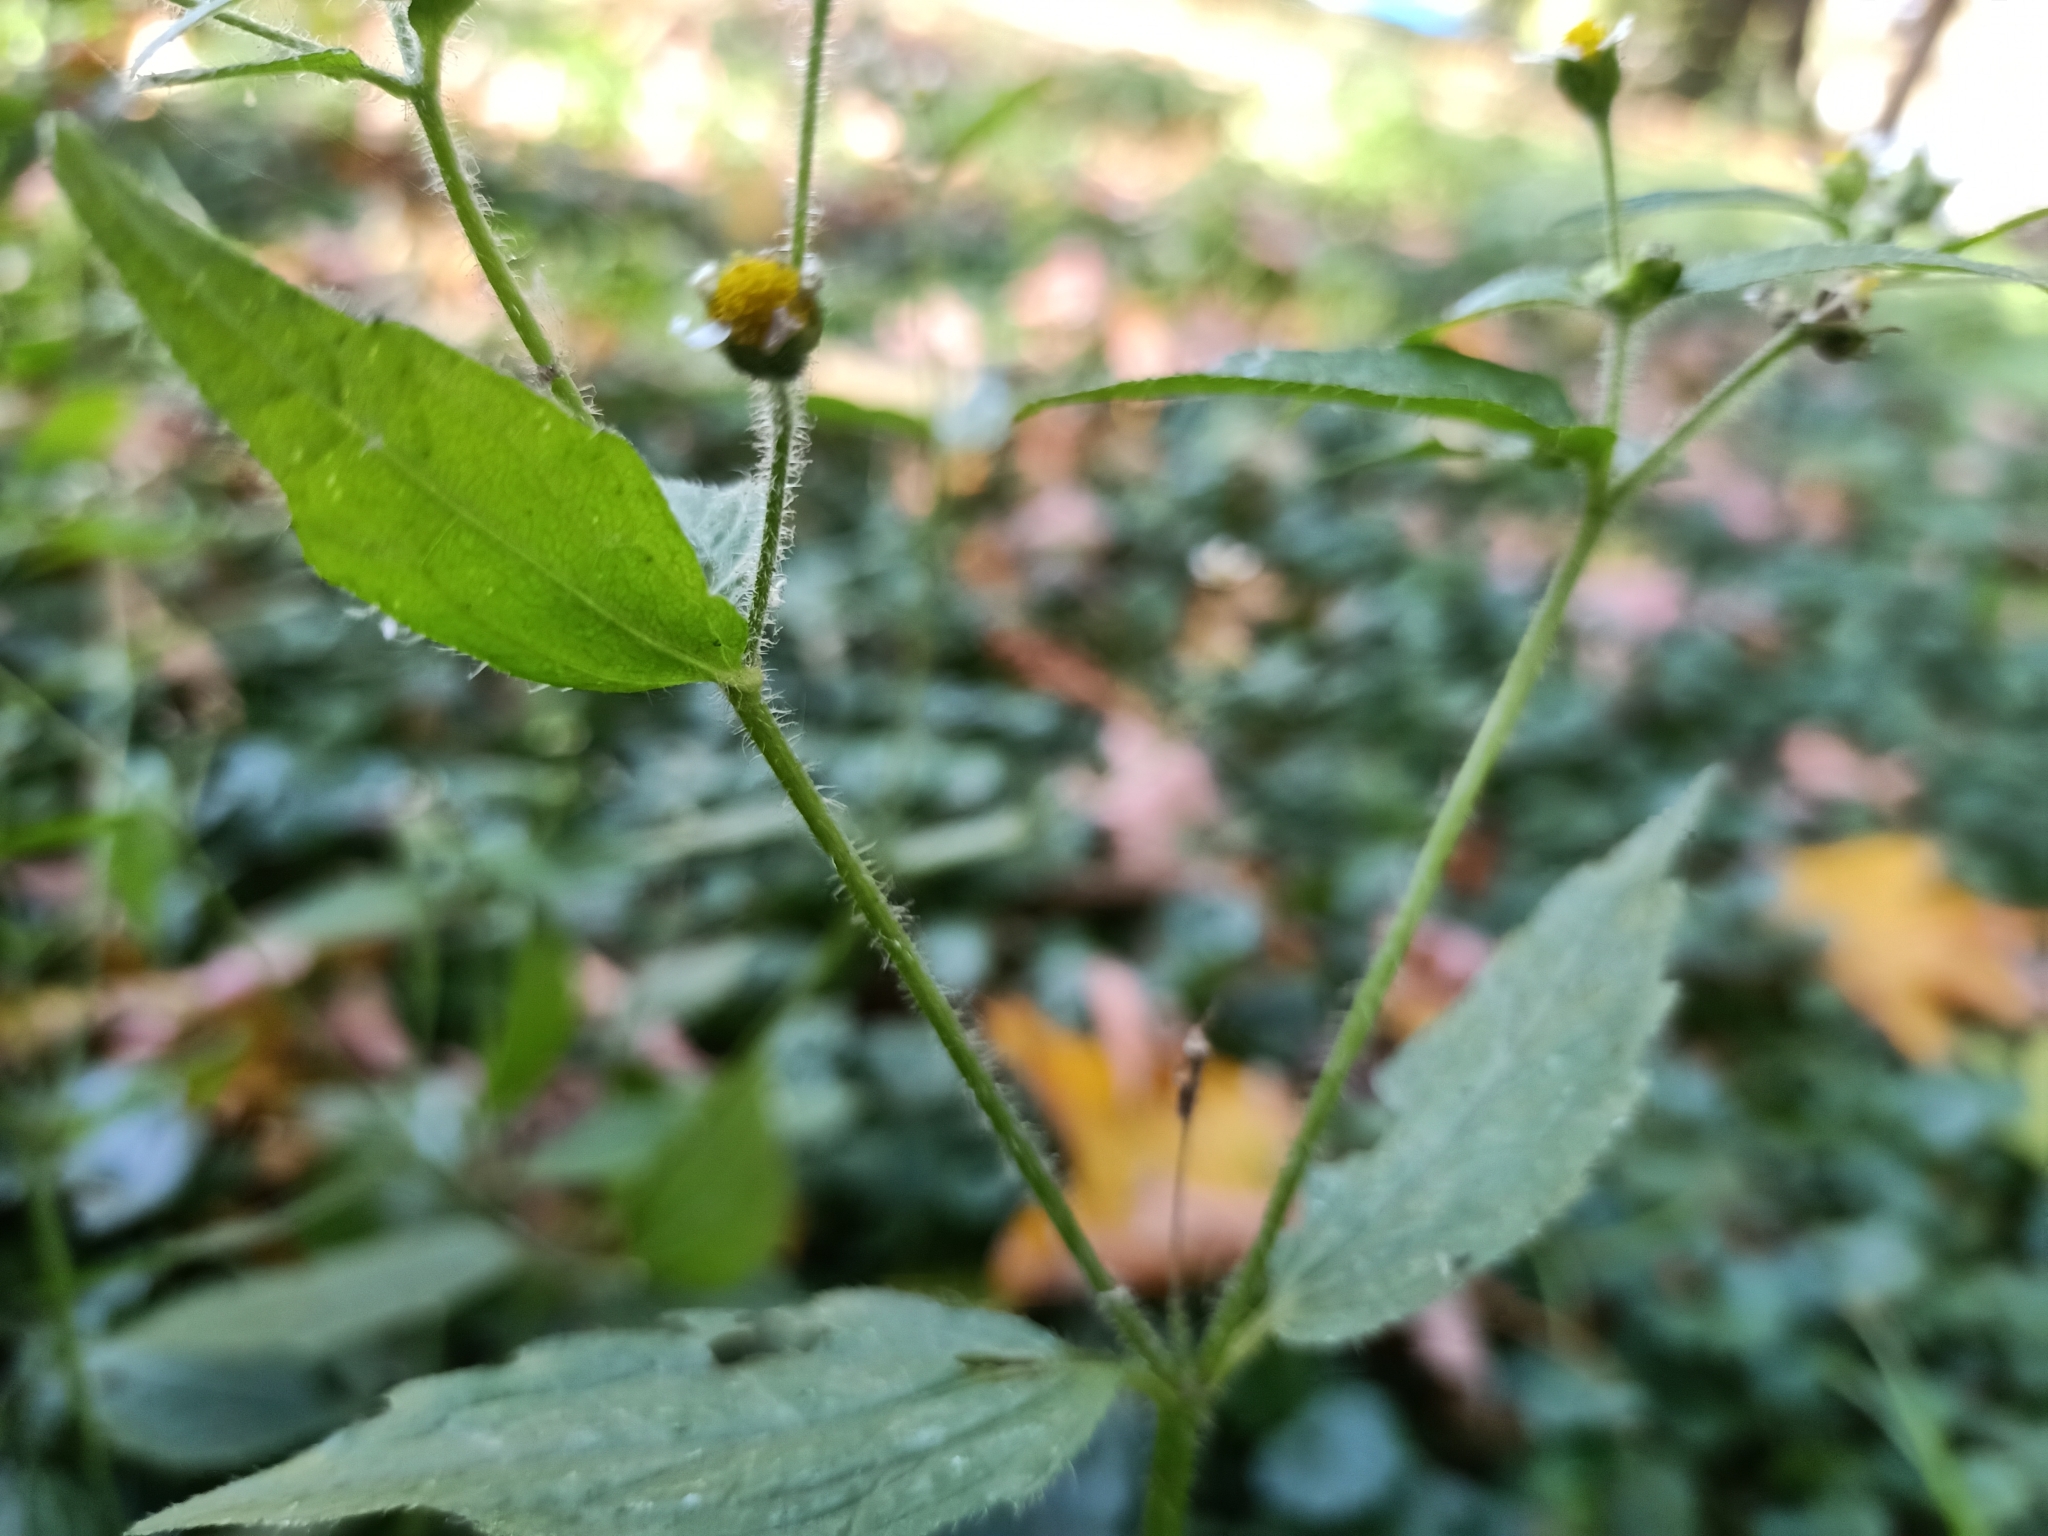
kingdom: Plantae
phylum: Tracheophyta
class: Magnoliopsida
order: Asterales
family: Asteraceae
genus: Galinsoga
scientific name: Galinsoga quadriradiata
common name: Shaggy soldier
